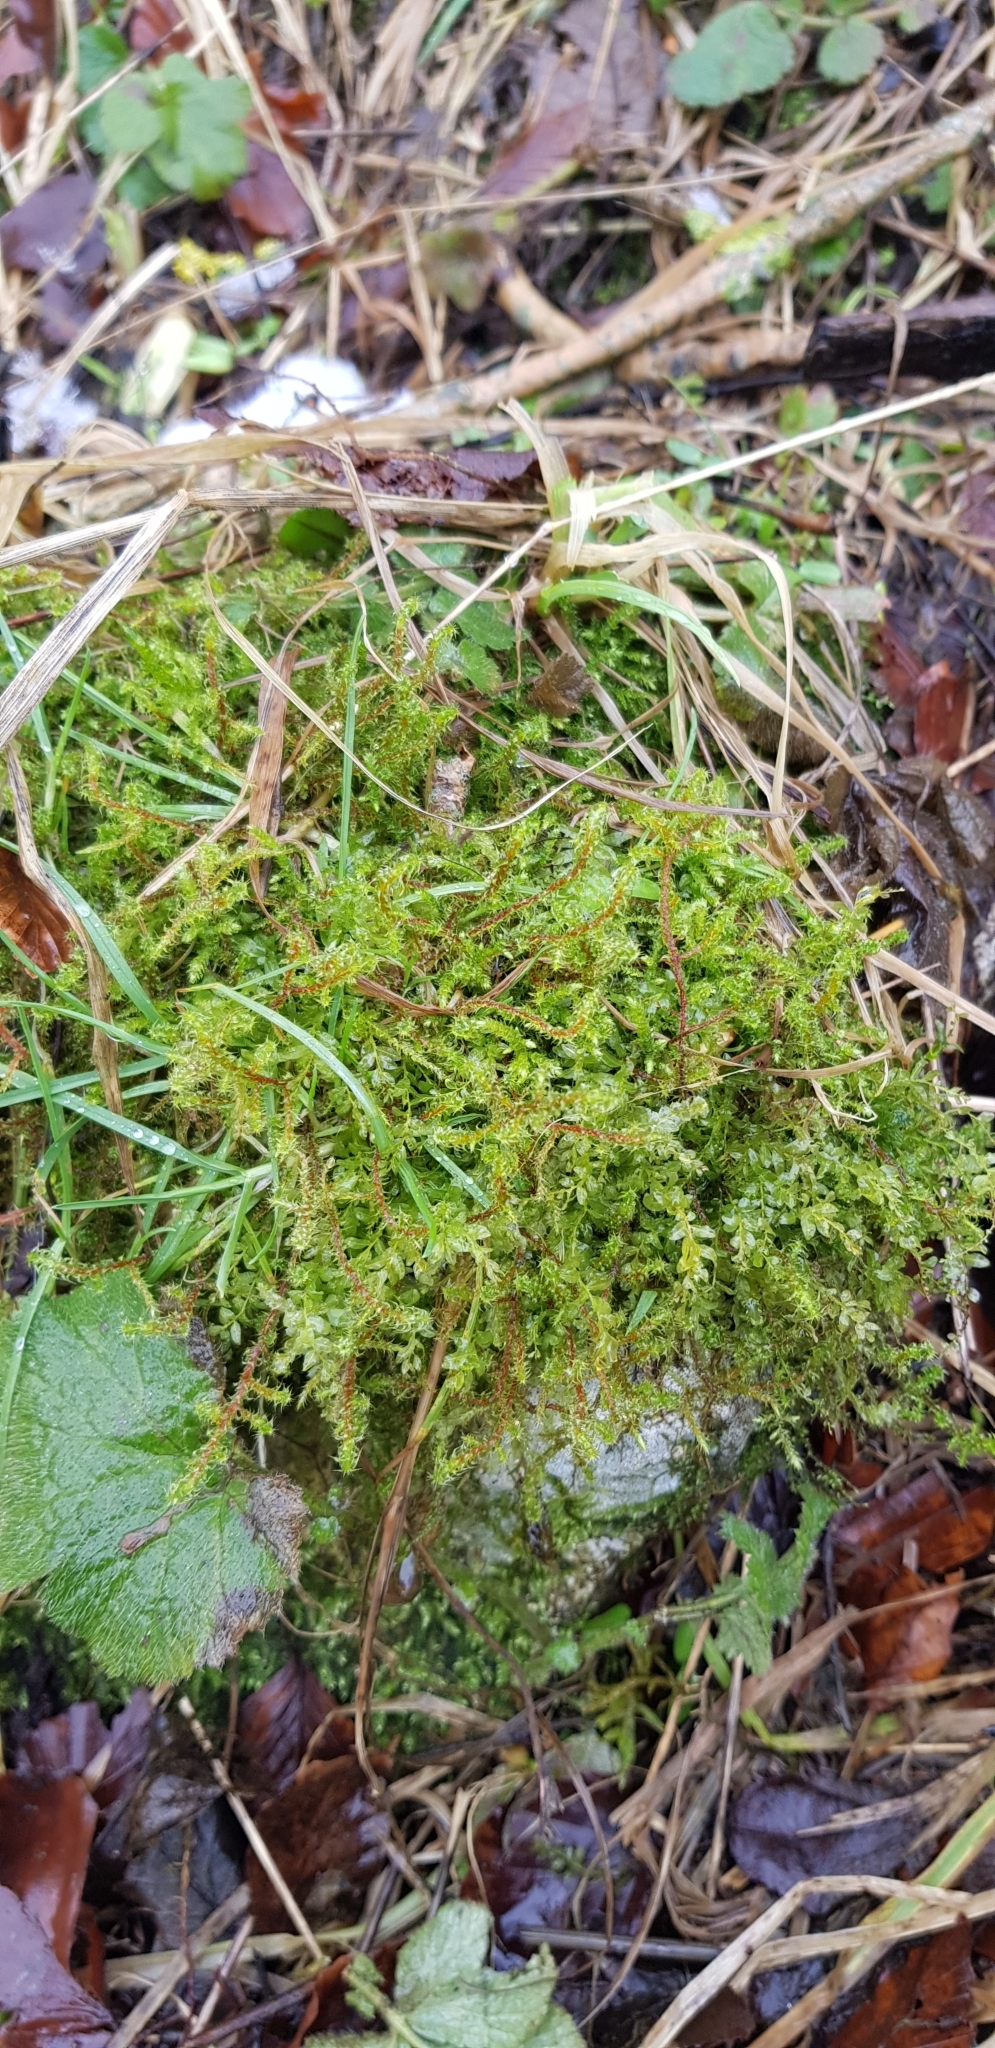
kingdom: Plantae
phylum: Bryophyta
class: Bryopsida
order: Hypnales
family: Hylocomiaceae
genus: Rhytidiadelphus
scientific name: Rhytidiadelphus squarrosus
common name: Springy turf-moss
